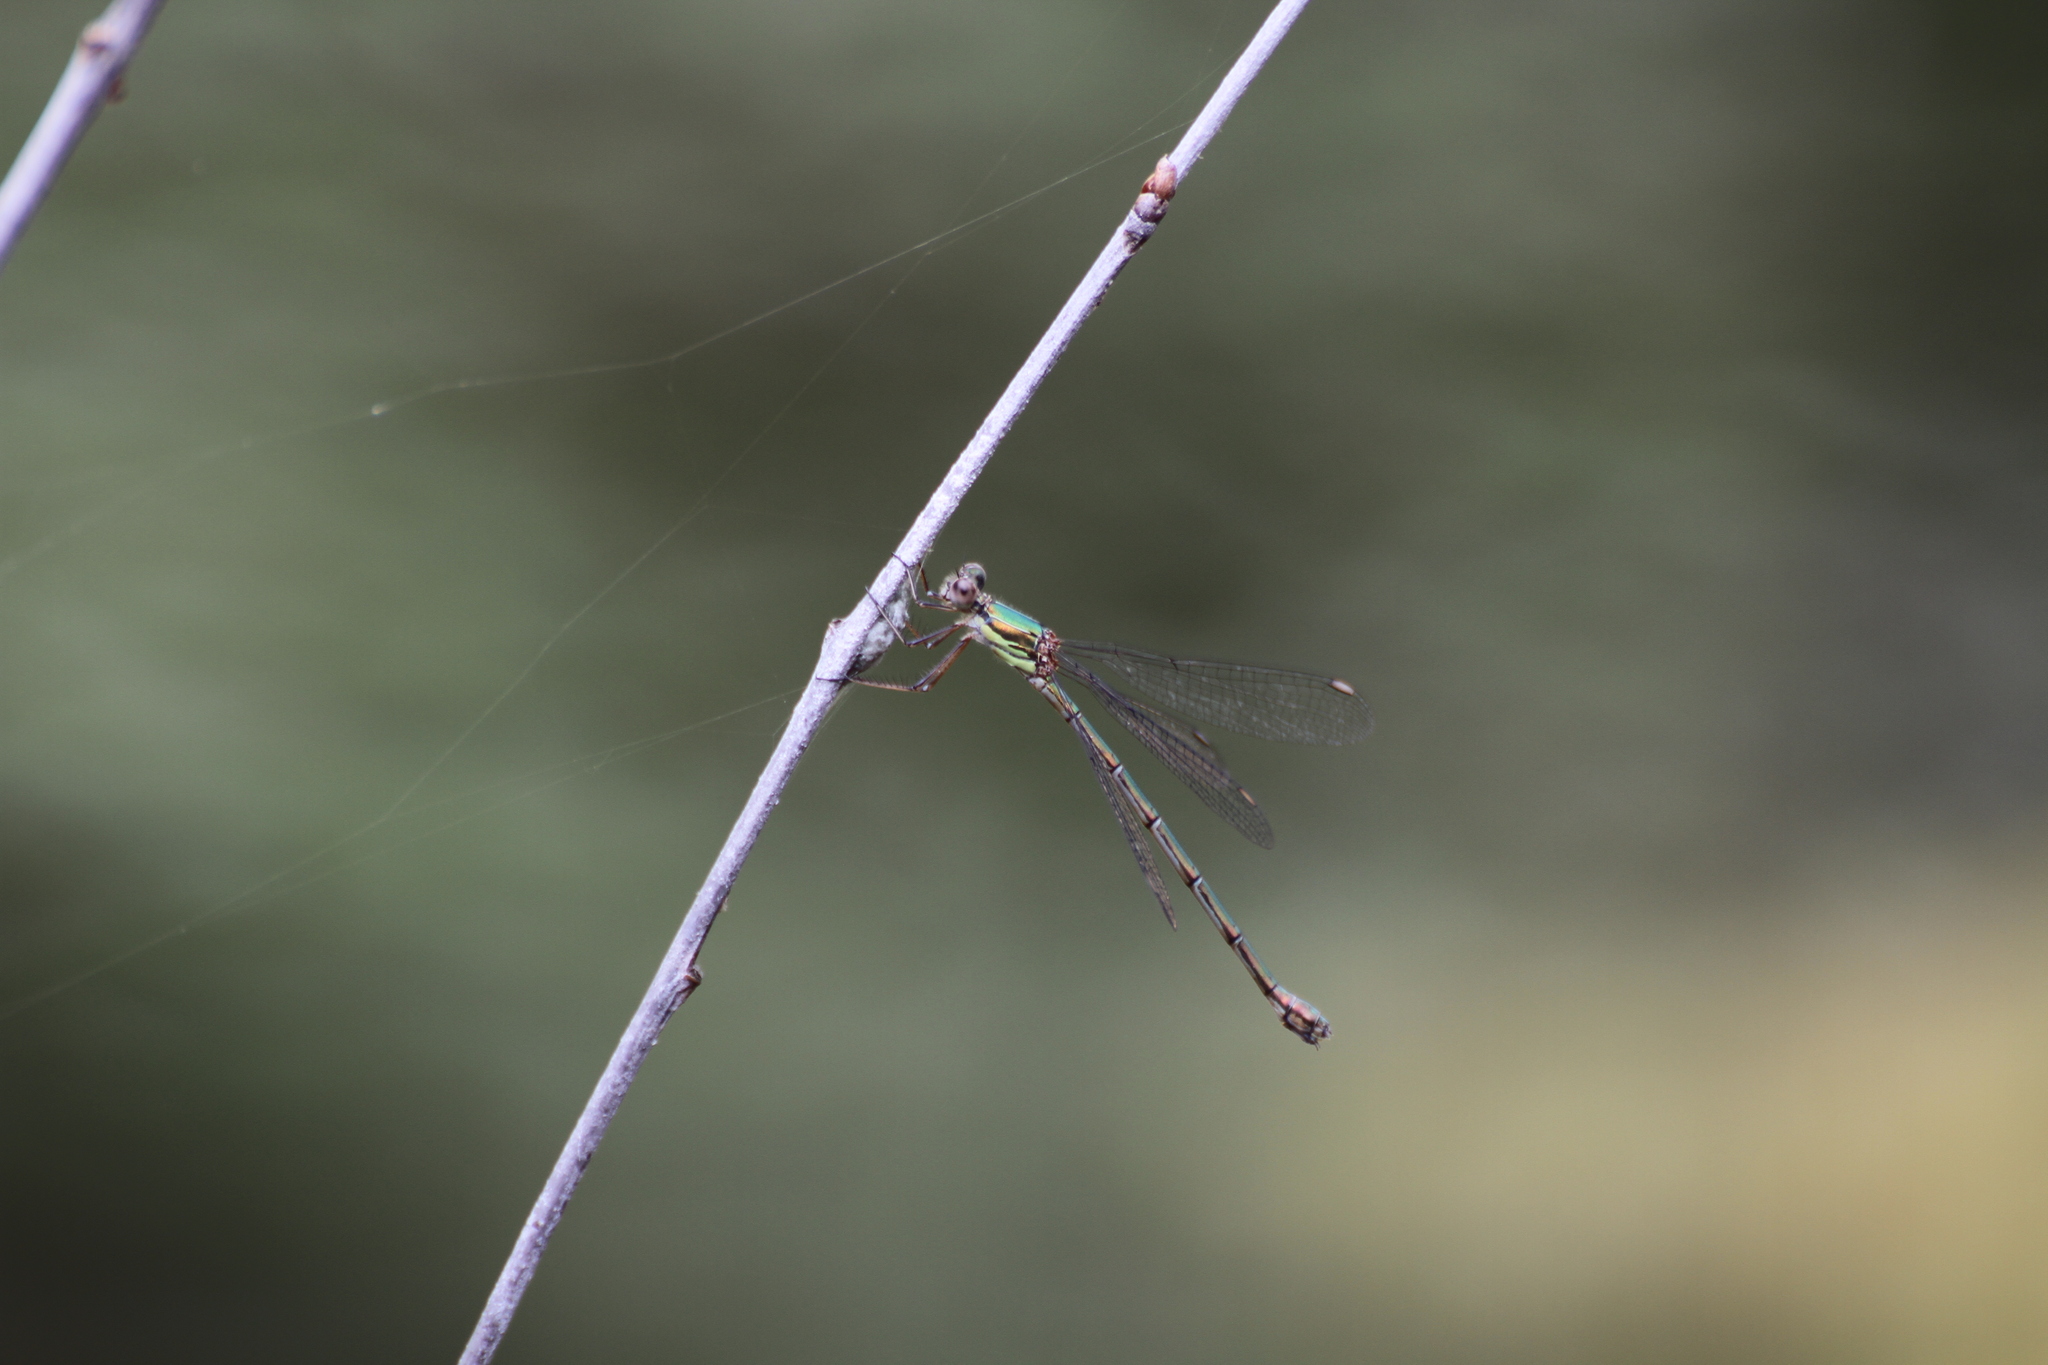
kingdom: Animalia
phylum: Arthropoda
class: Insecta
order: Odonata
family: Lestidae
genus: Chalcolestes
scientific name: Chalcolestes viridis
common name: Green emerald damselfly
